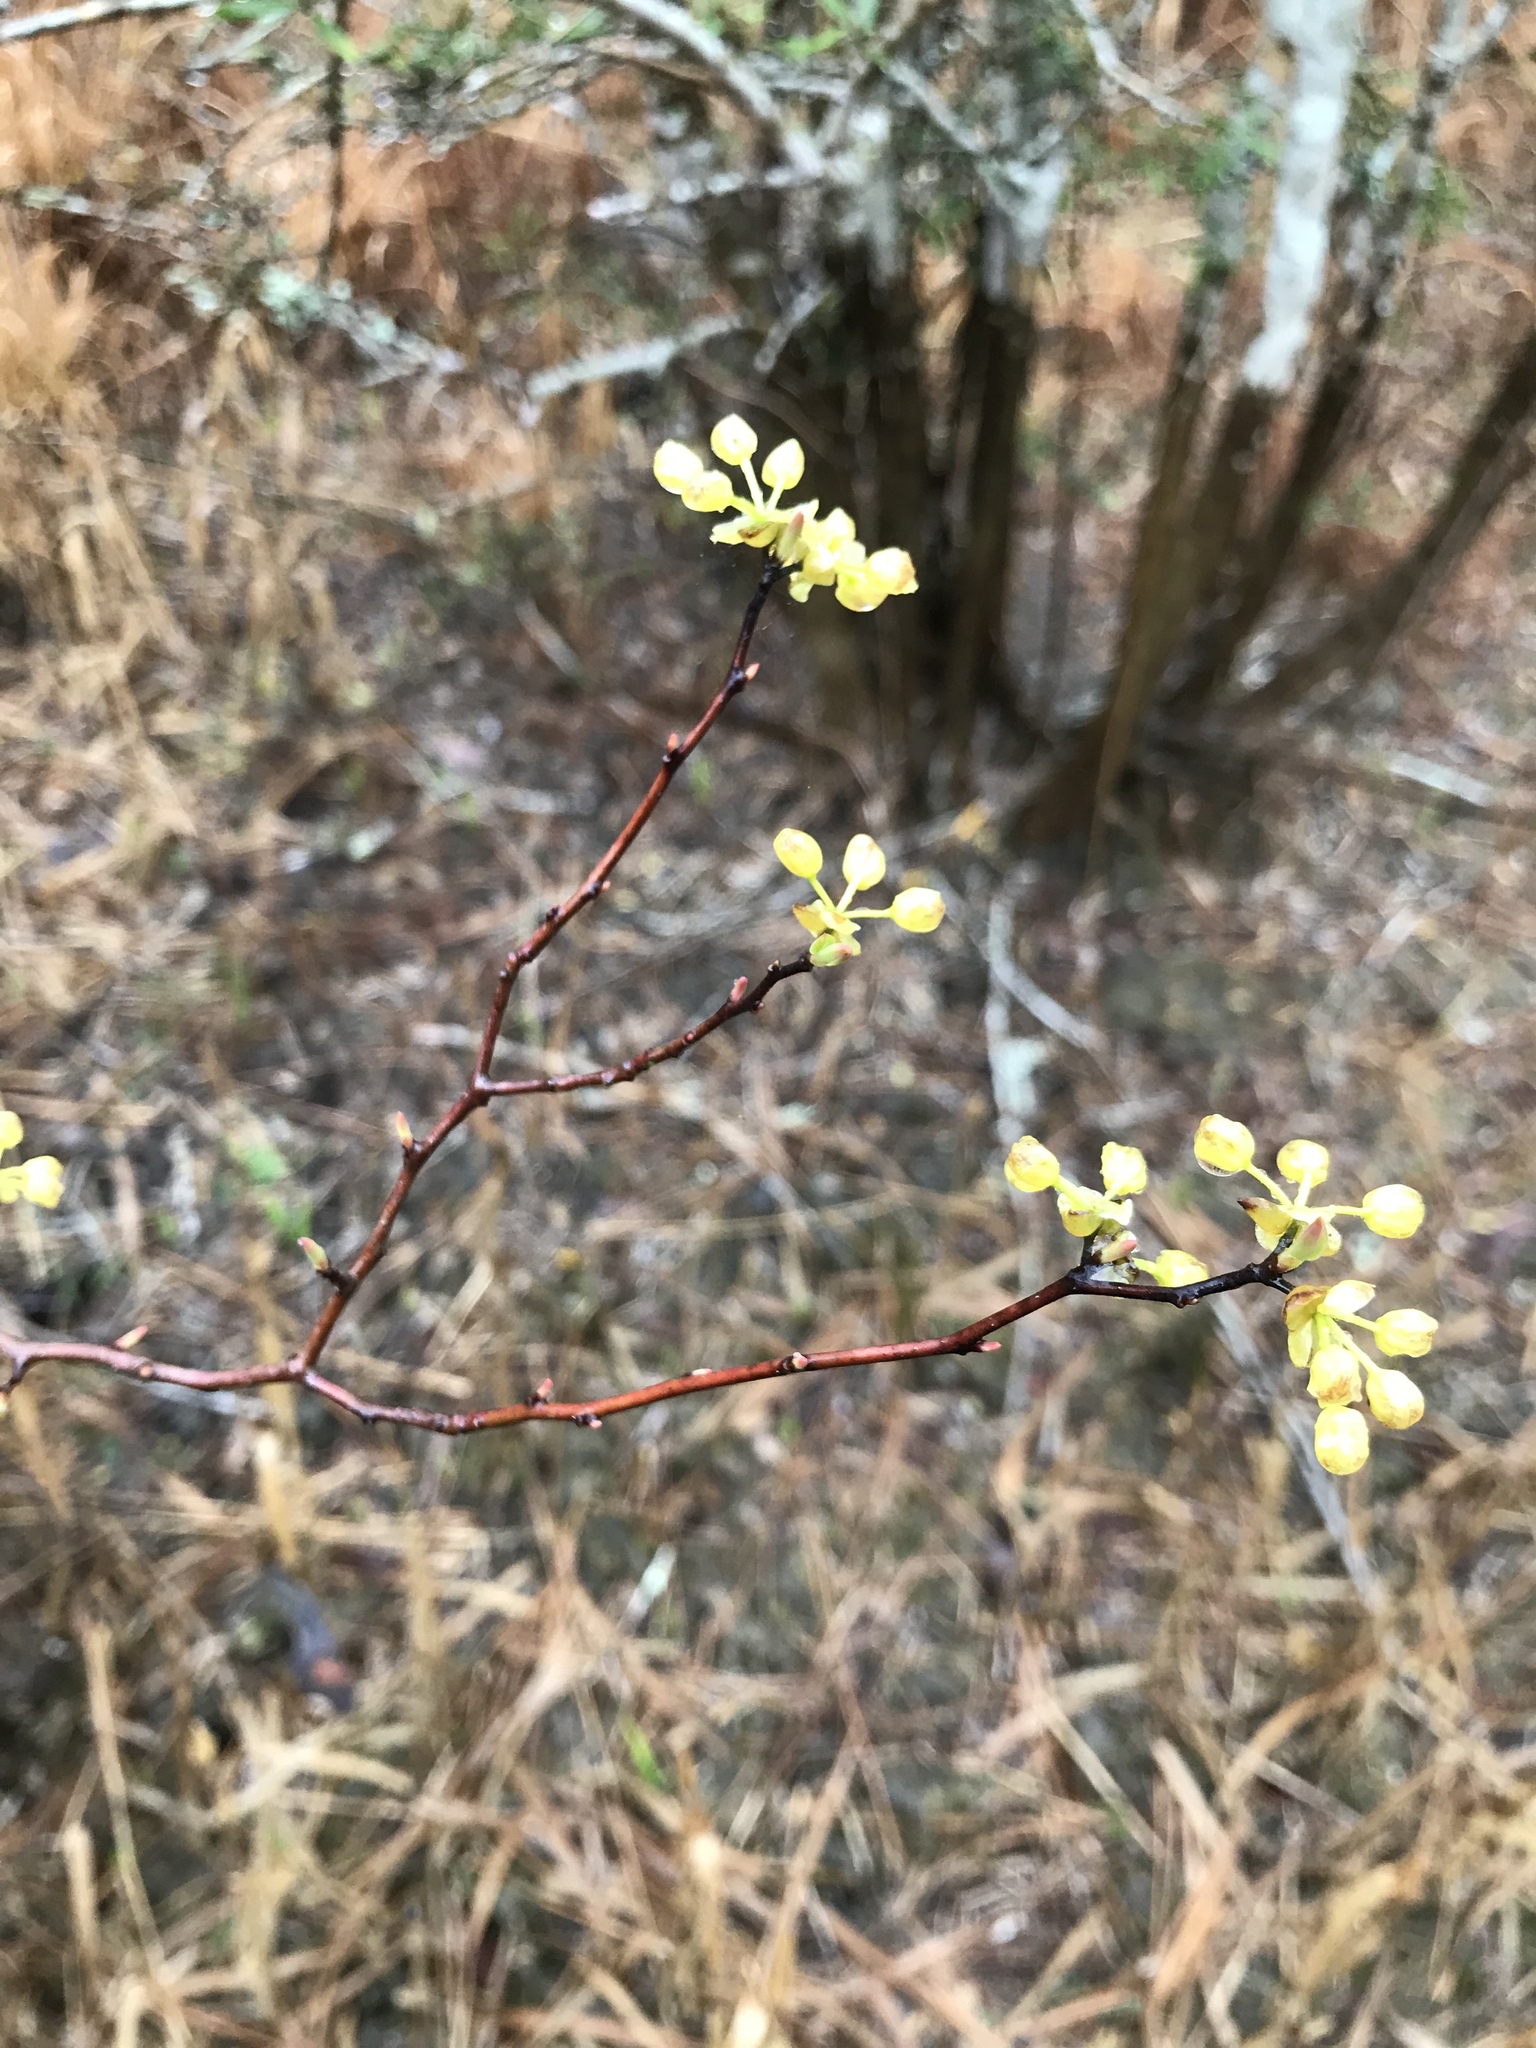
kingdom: Plantae
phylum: Tracheophyta
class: Magnoliopsida
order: Laurales
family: Lauraceae
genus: Litsea
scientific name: Litsea aestivalis
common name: Pondspice
